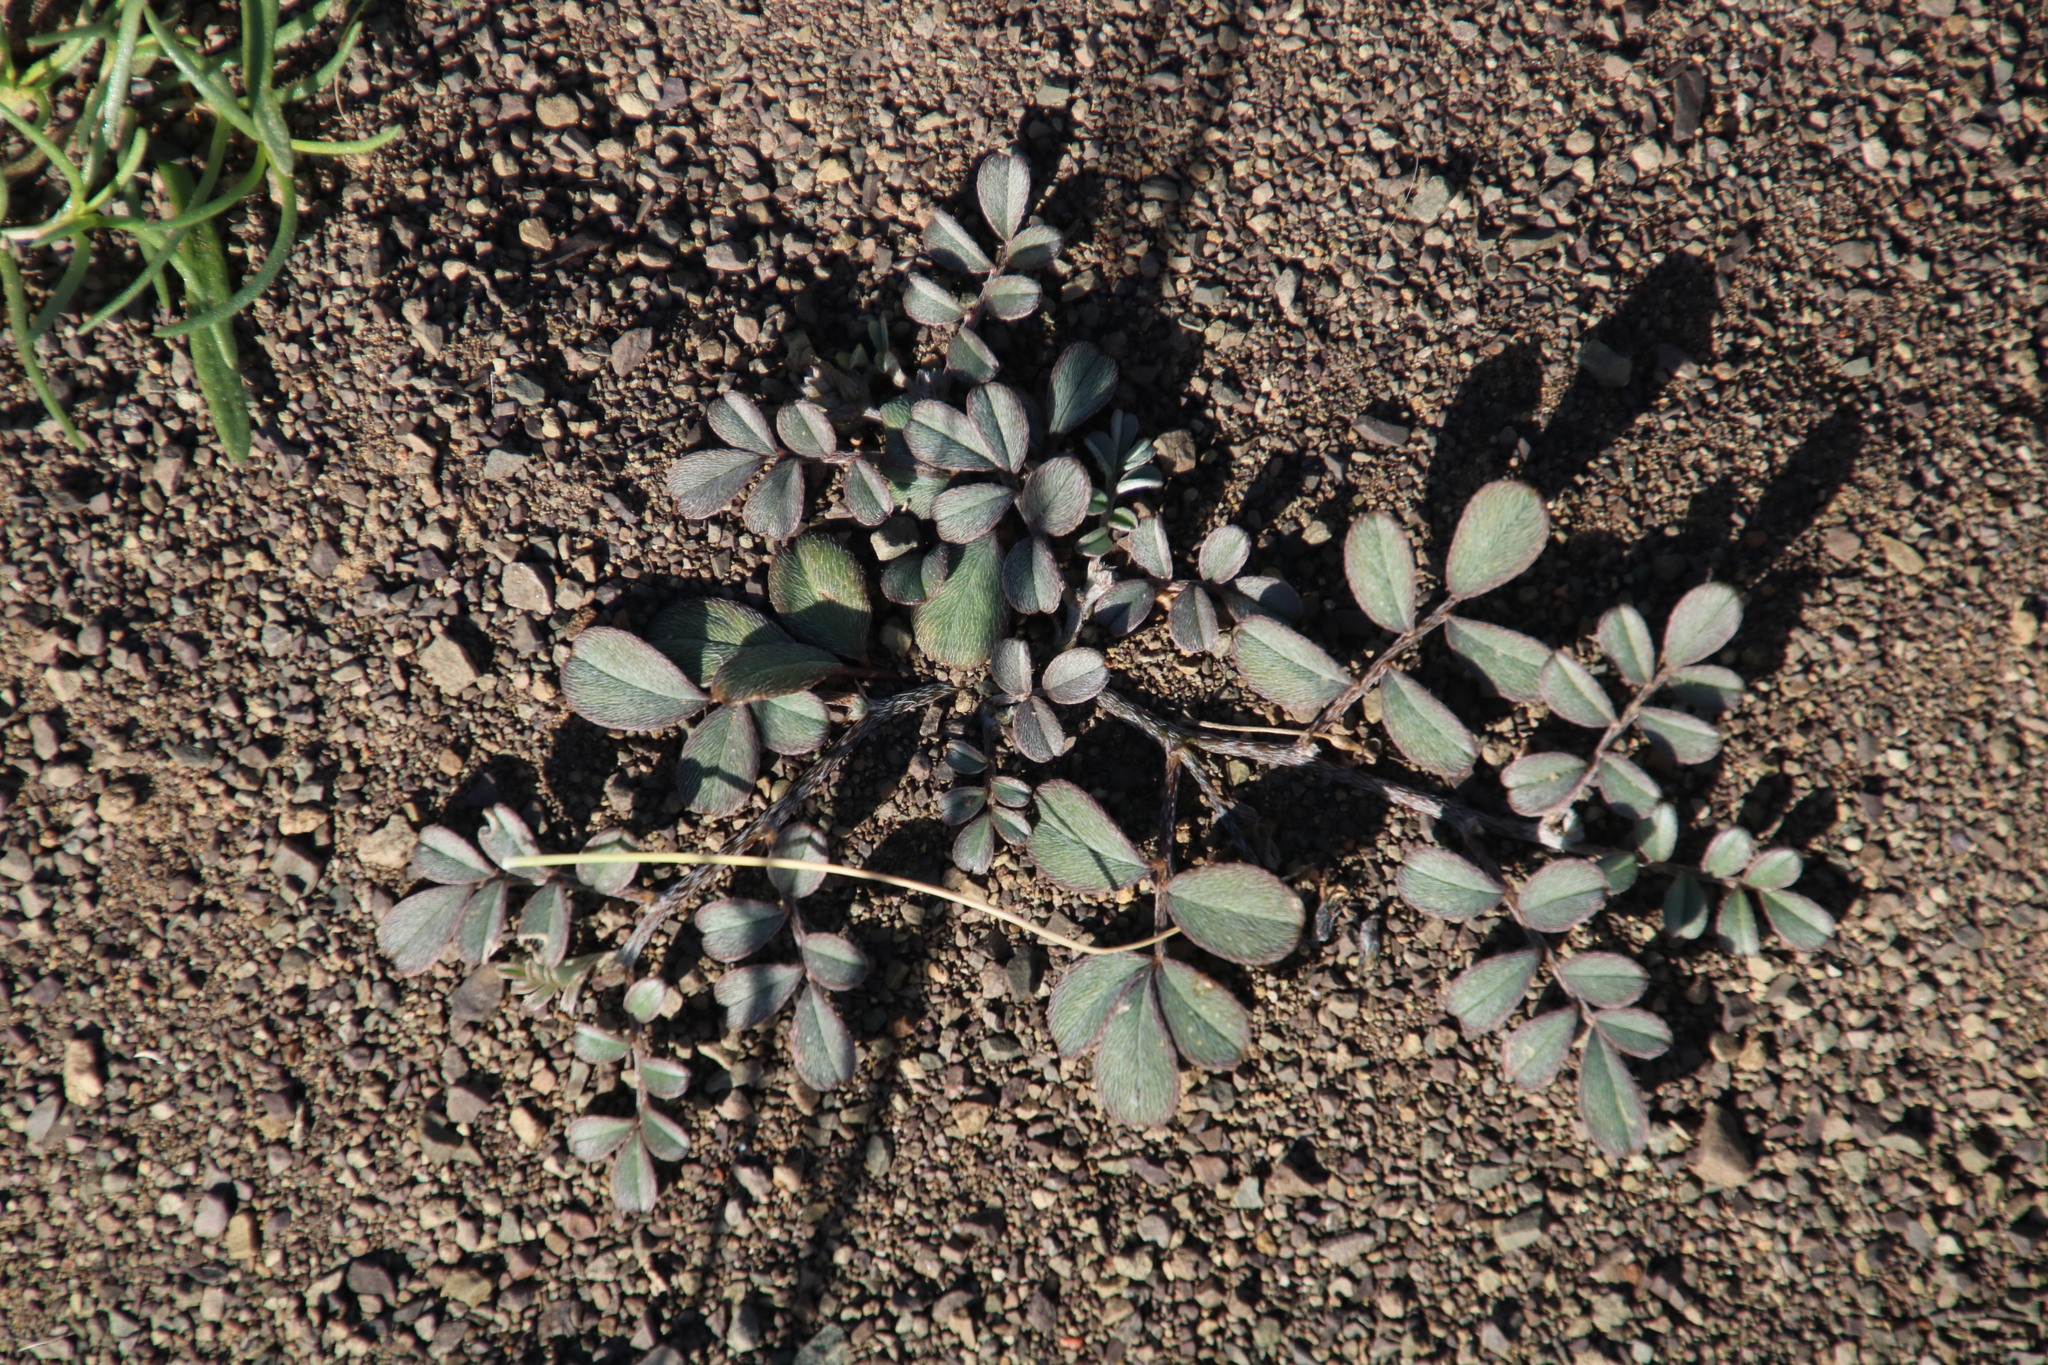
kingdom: Plantae
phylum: Tracheophyta
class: Magnoliopsida
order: Fabales
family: Fabaceae
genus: Indigastrum
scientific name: Indigastrum niveum
